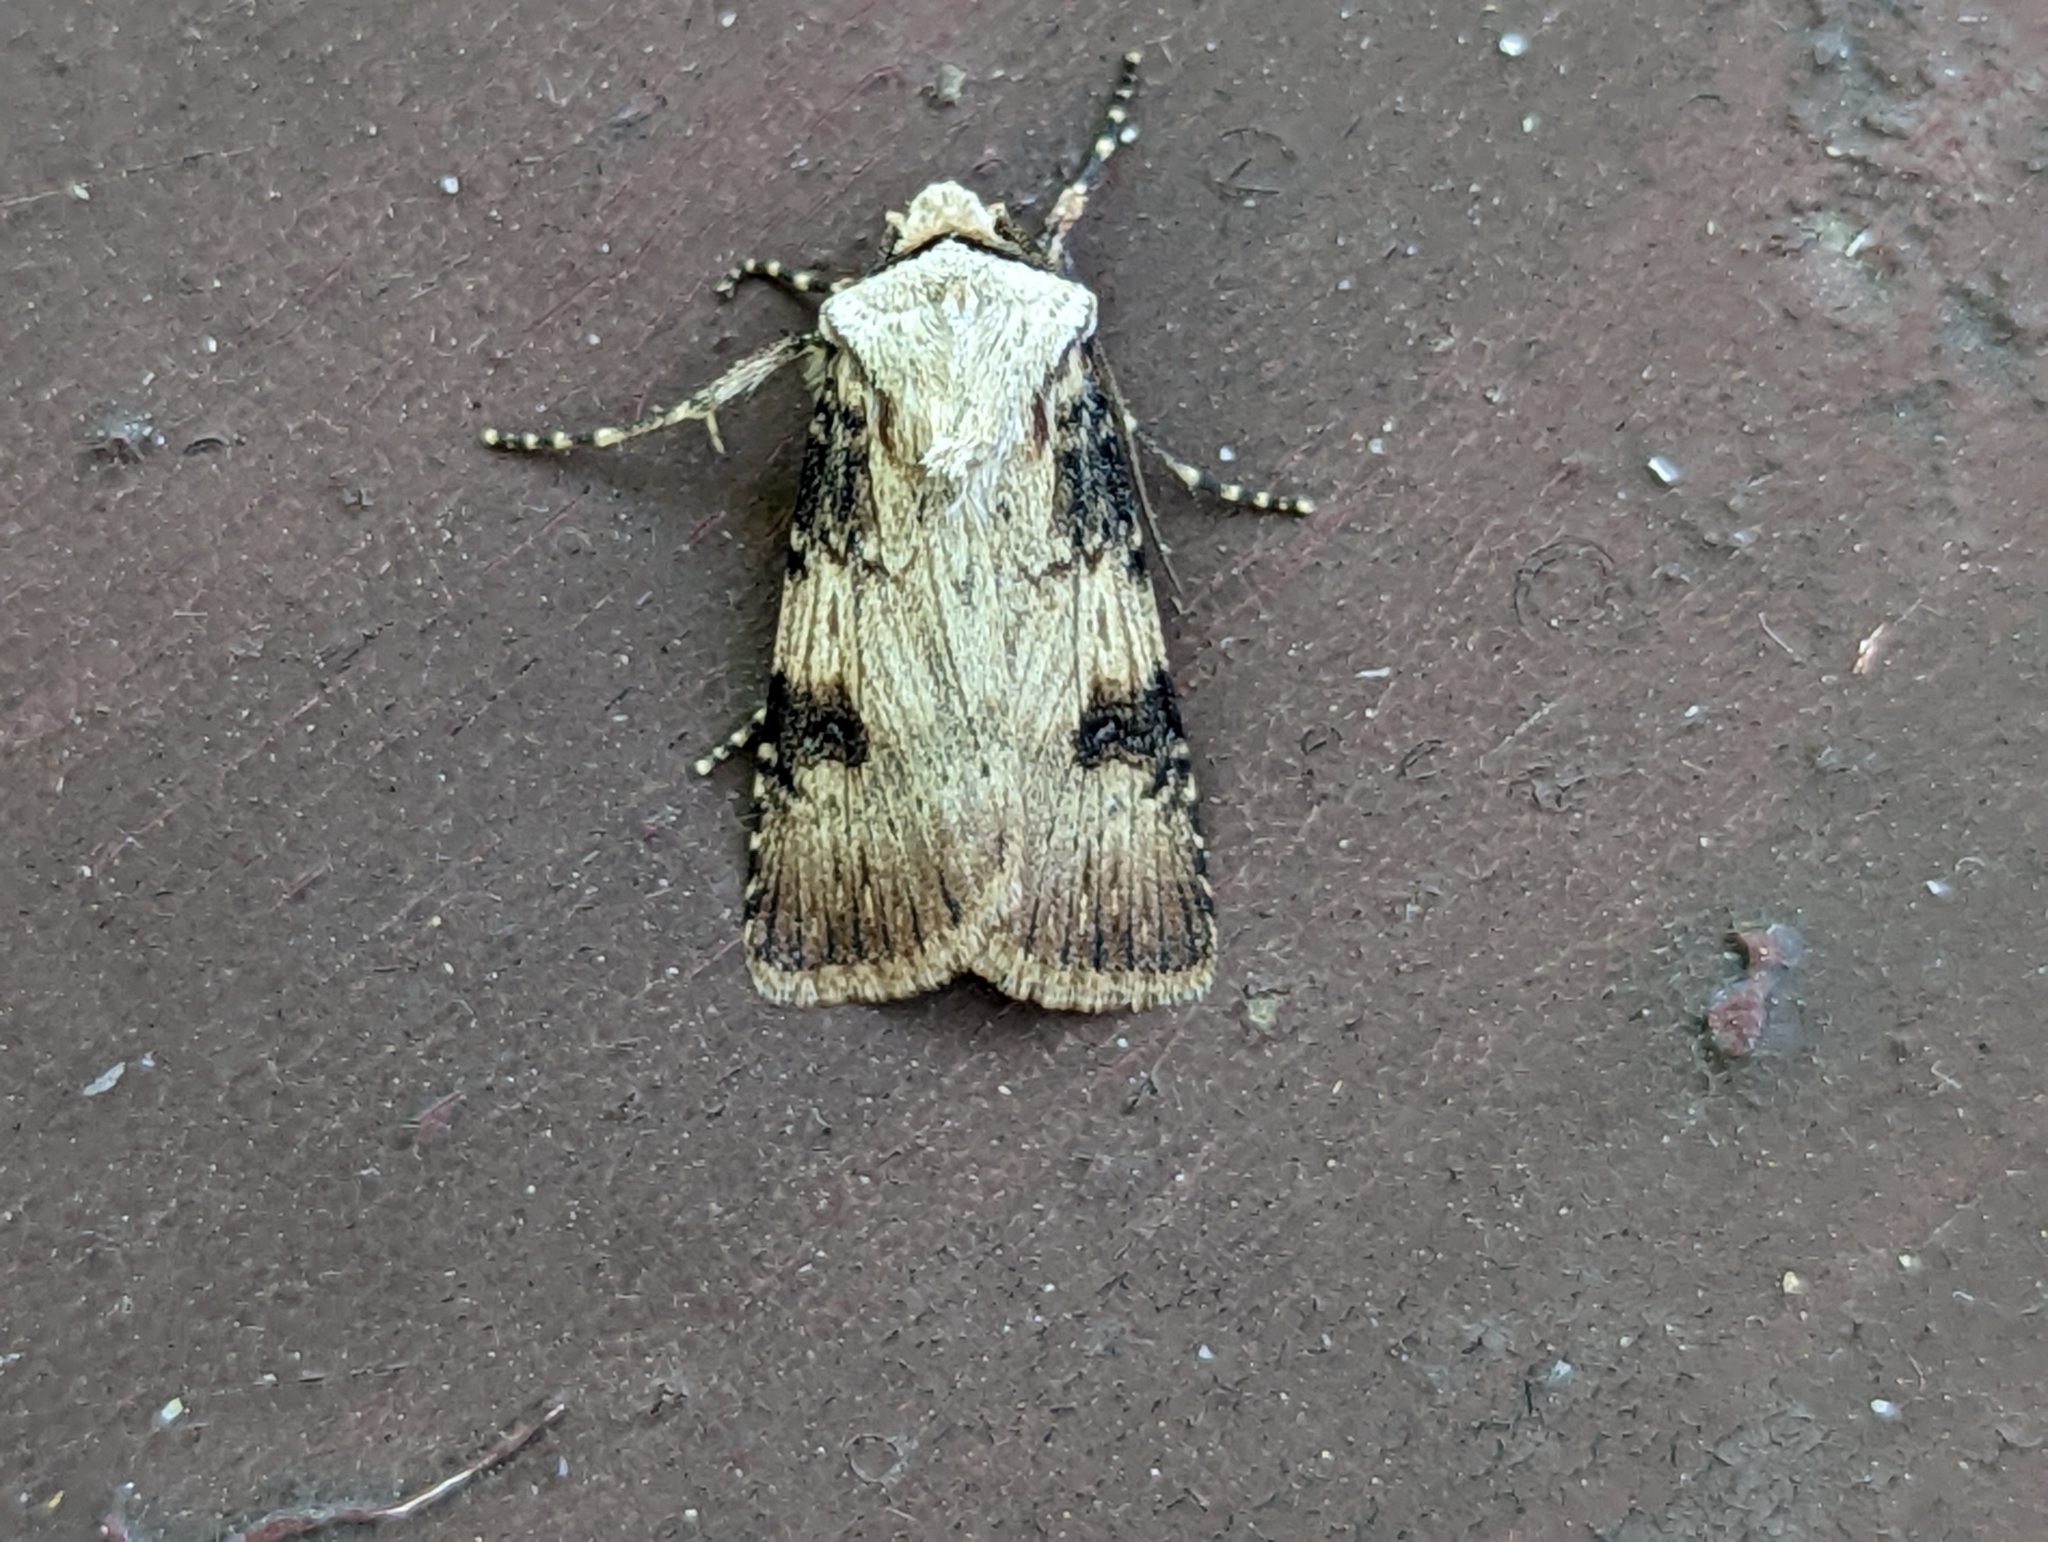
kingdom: Animalia
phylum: Arthropoda
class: Insecta
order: Lepidoptera
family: Noctuidae
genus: Agrotis
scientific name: Agrotis puta
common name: Shuttle-shaped dart
